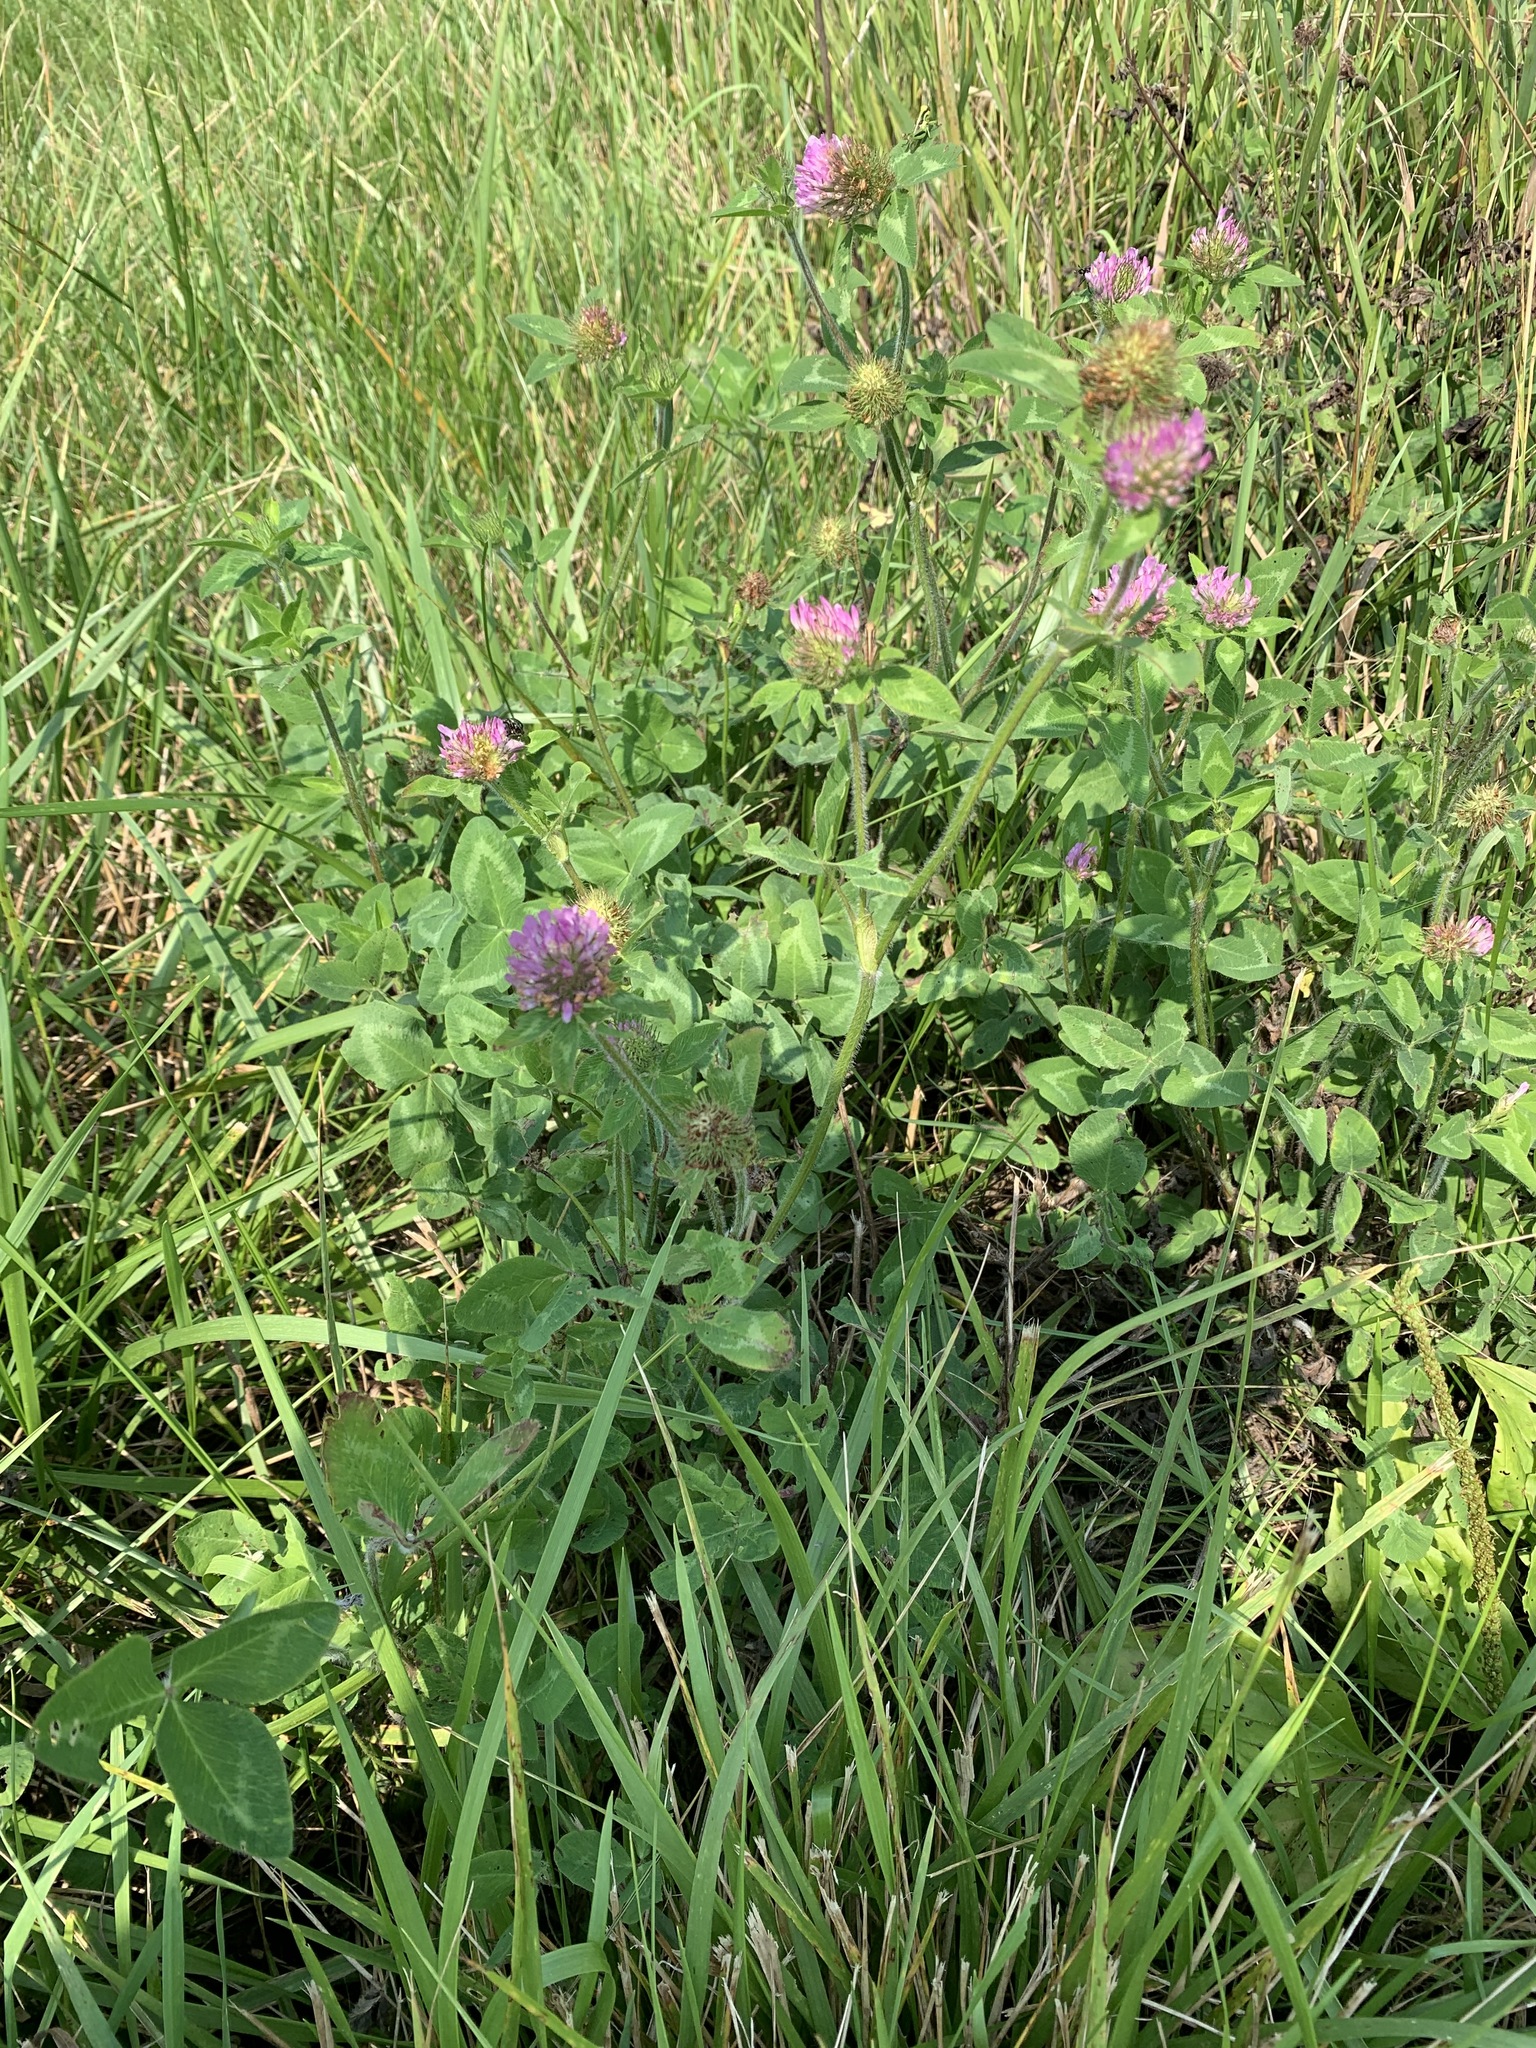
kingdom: Plantae
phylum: Tracheophyta
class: Magnoliopsida
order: Fabales
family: Fabaceae
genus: Trifolium
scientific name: Trifolium pratense
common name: Red clover
